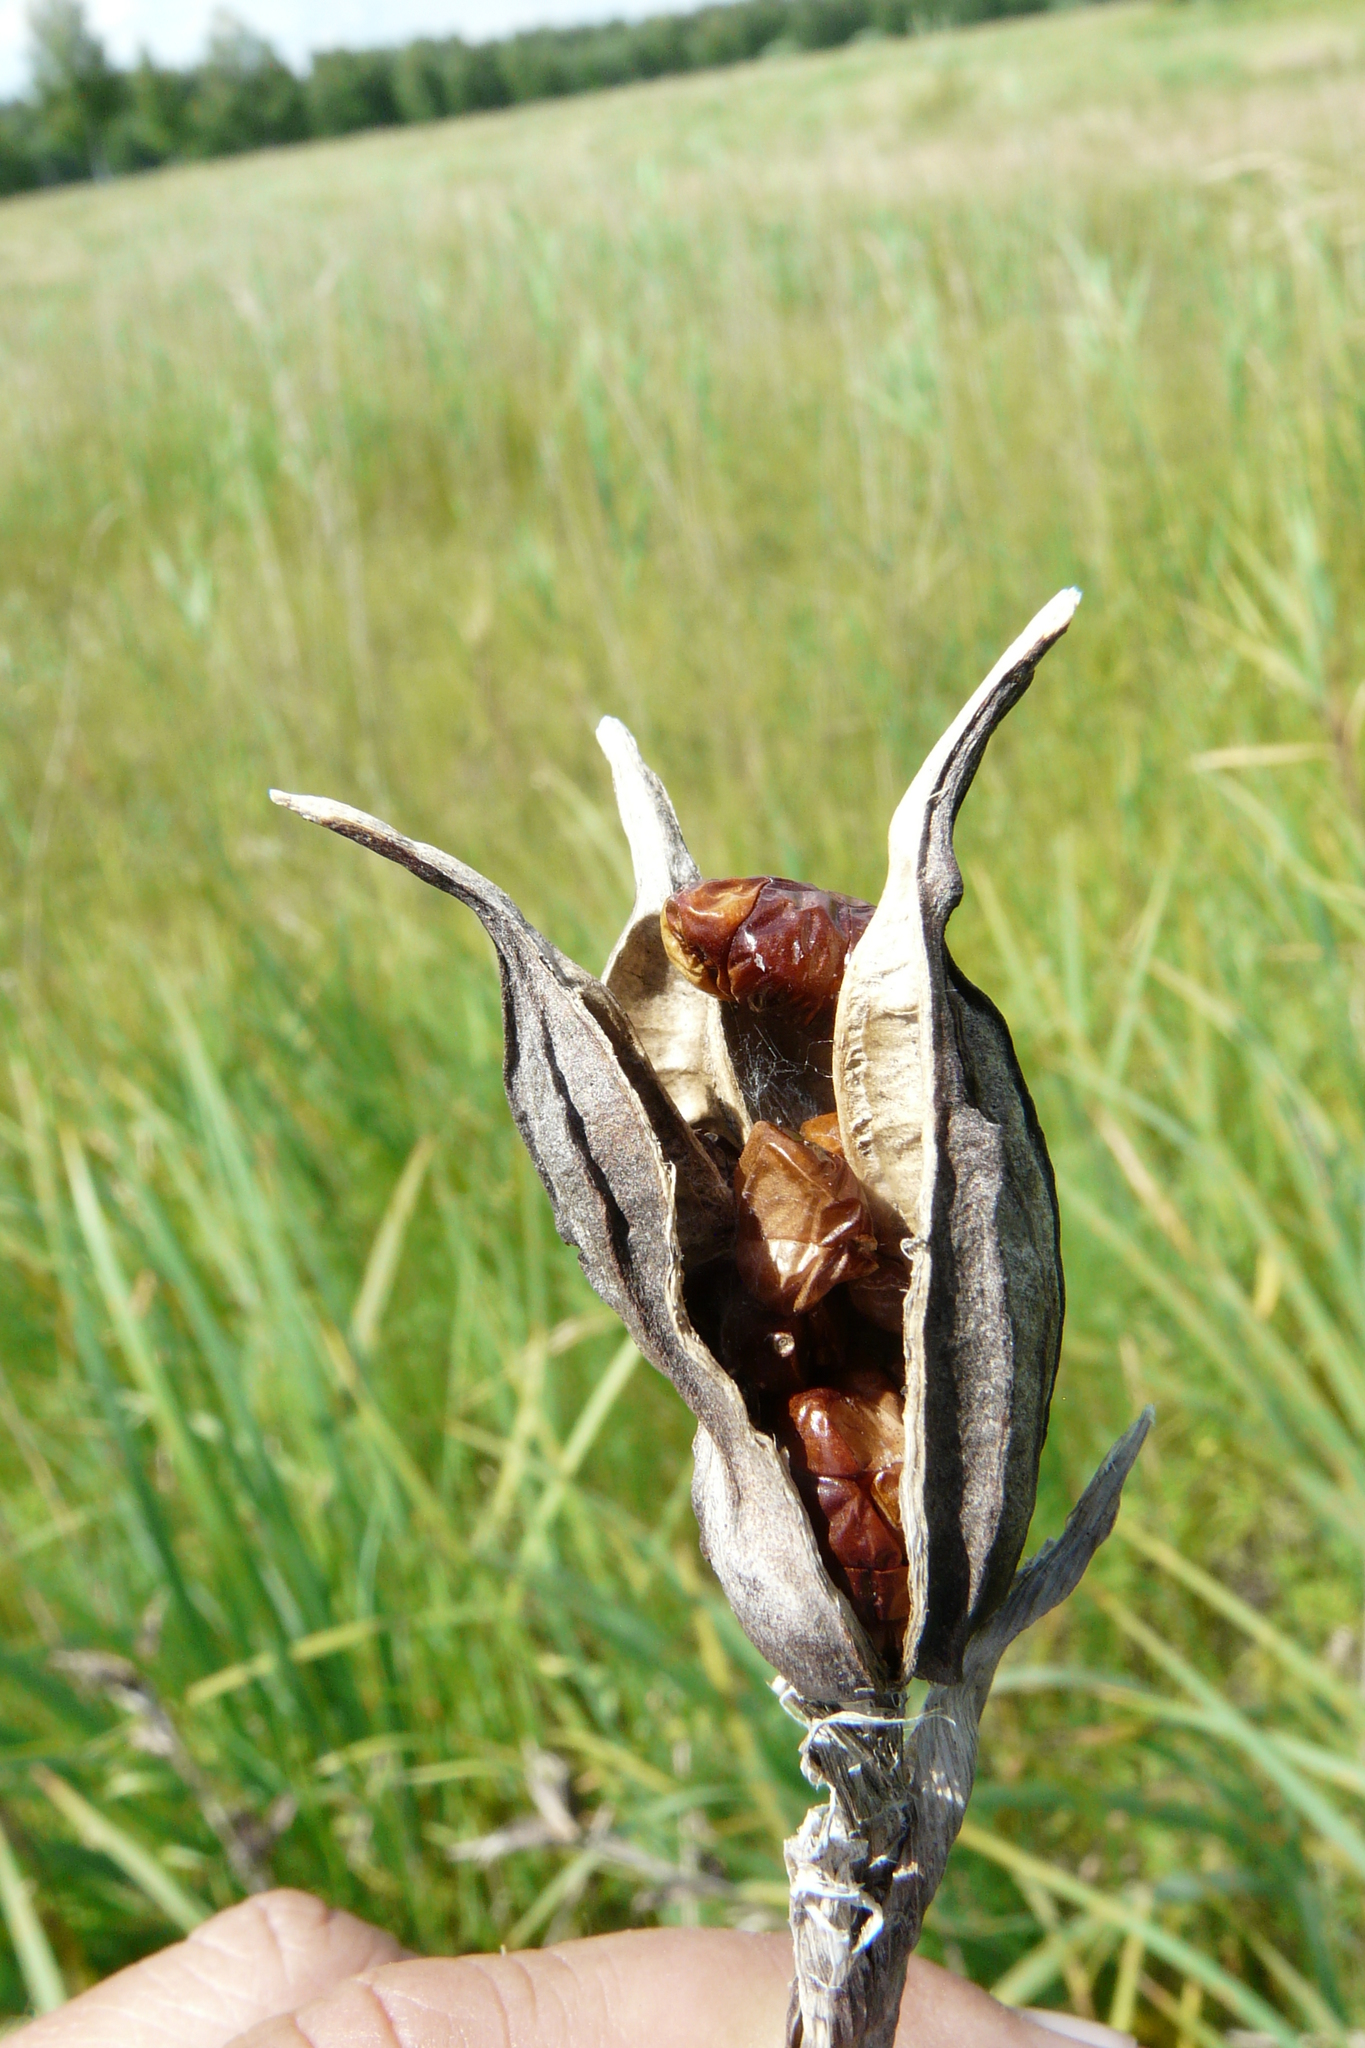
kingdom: Plantae
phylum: Tracheophyta
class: Liliopsida
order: Asparagales
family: Iridaceae
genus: Iris
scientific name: Iris halophila
